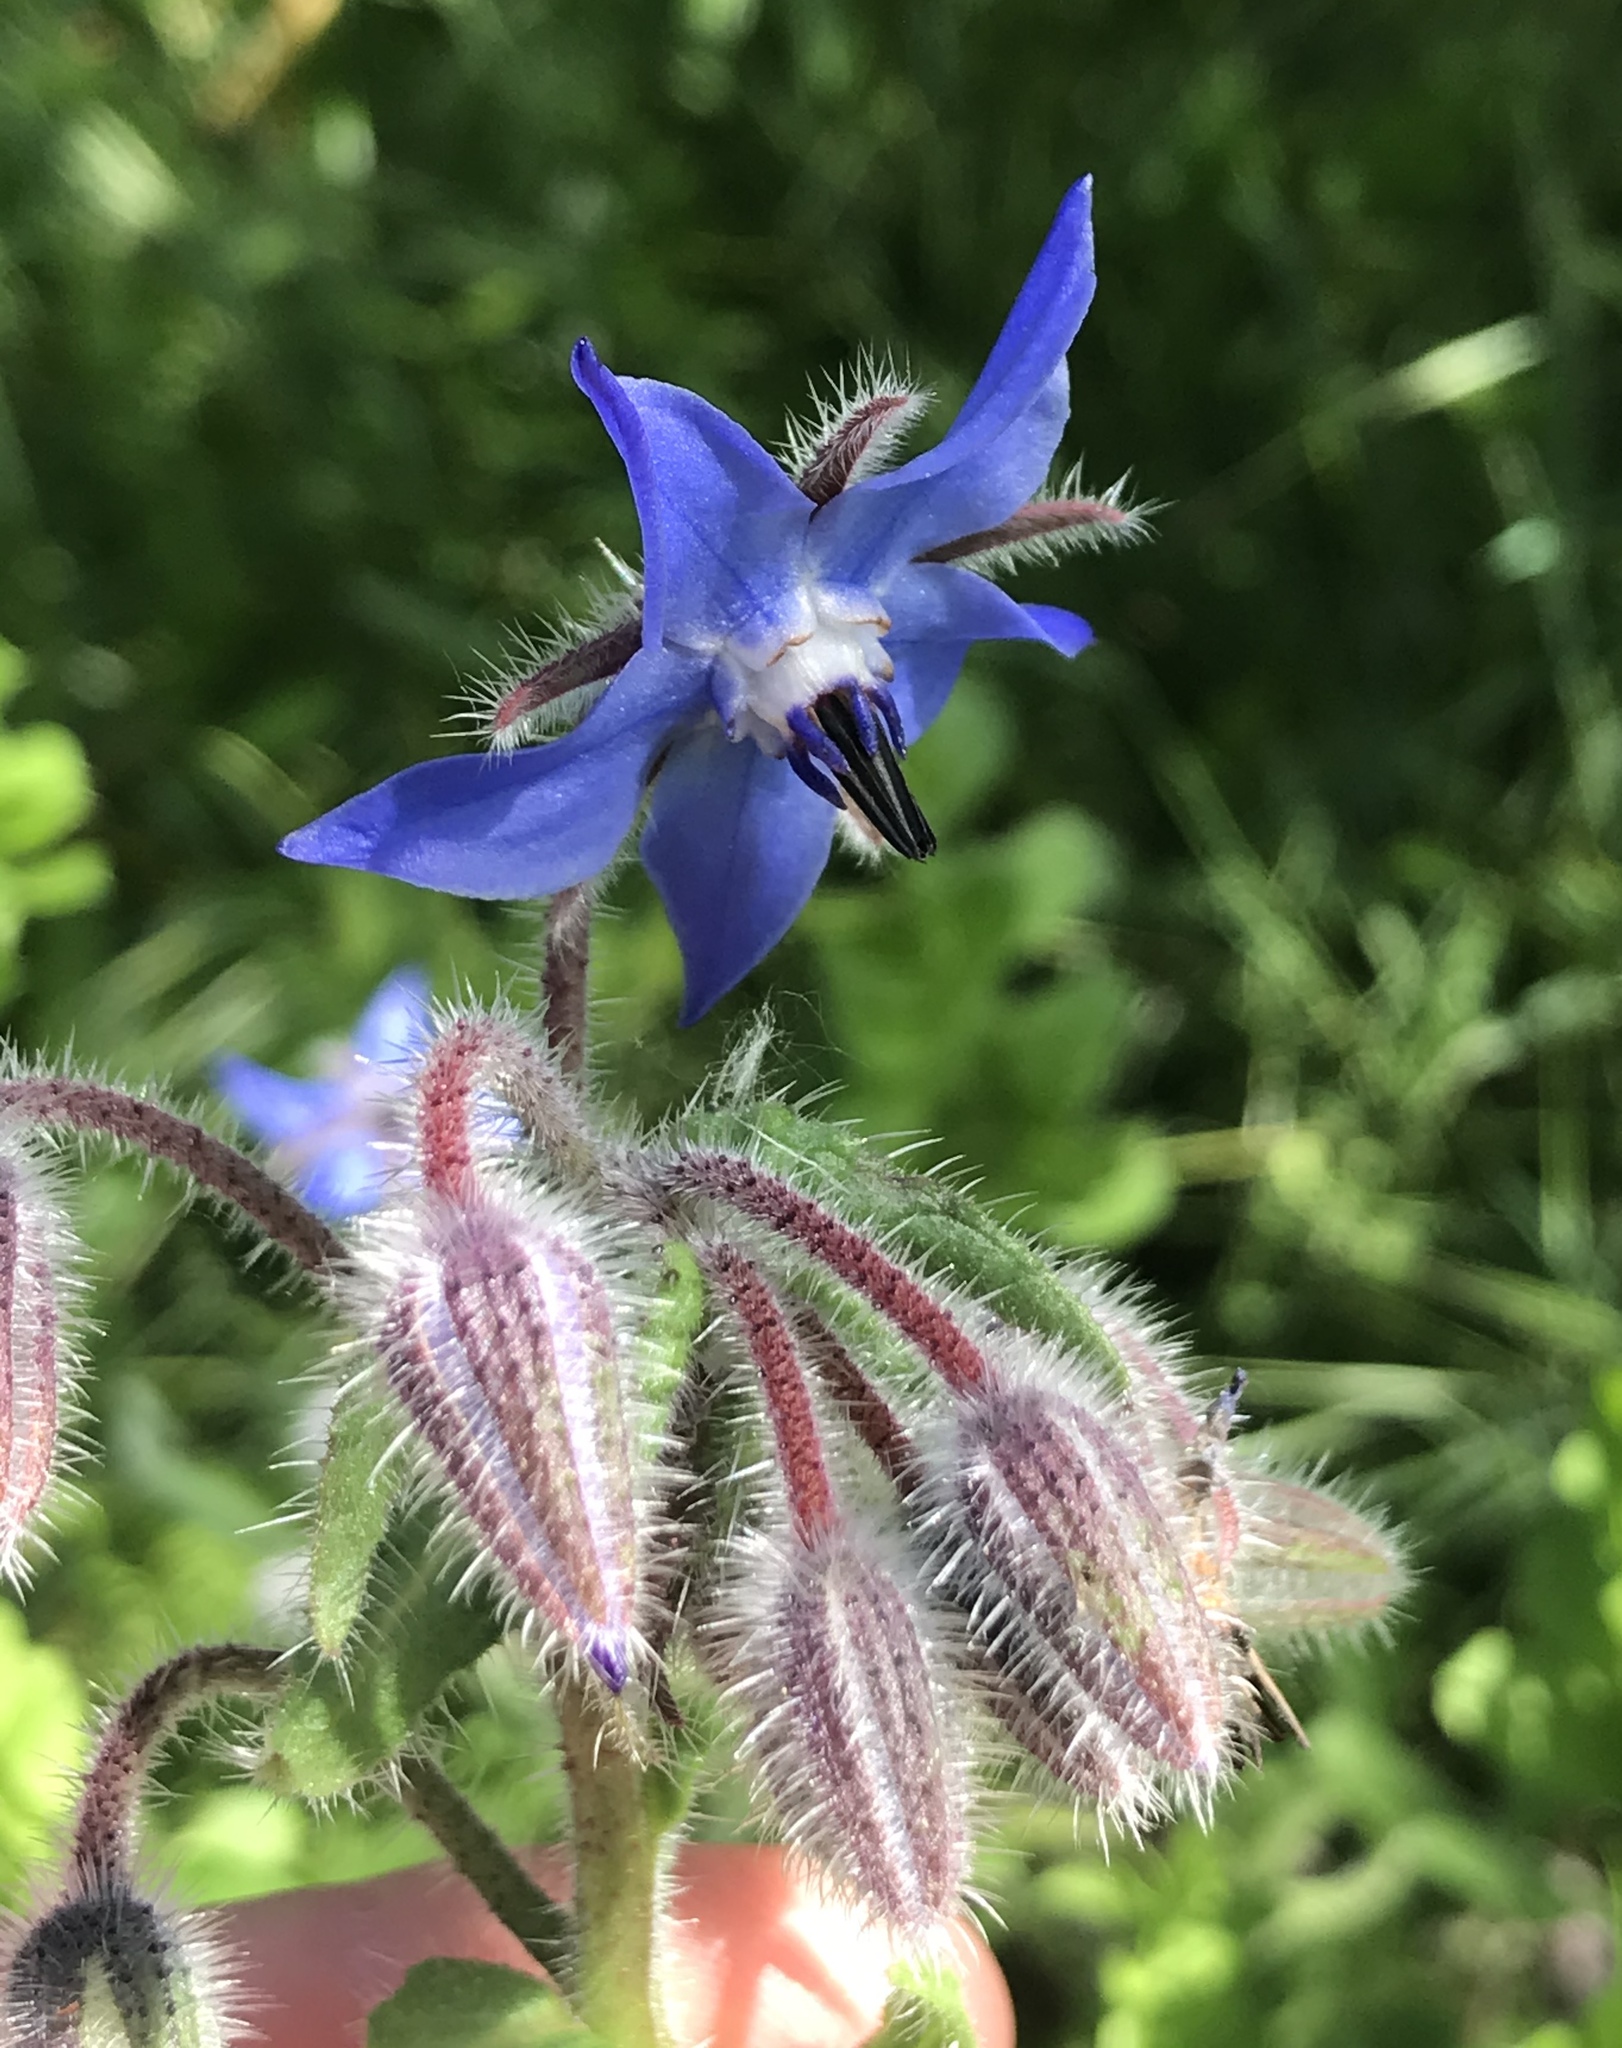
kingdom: Plantae
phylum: Tracheophyta
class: Magnoliopsida
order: Boraginales
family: Boraginaceae
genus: Borago
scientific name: Borago officinalis
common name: Borage
